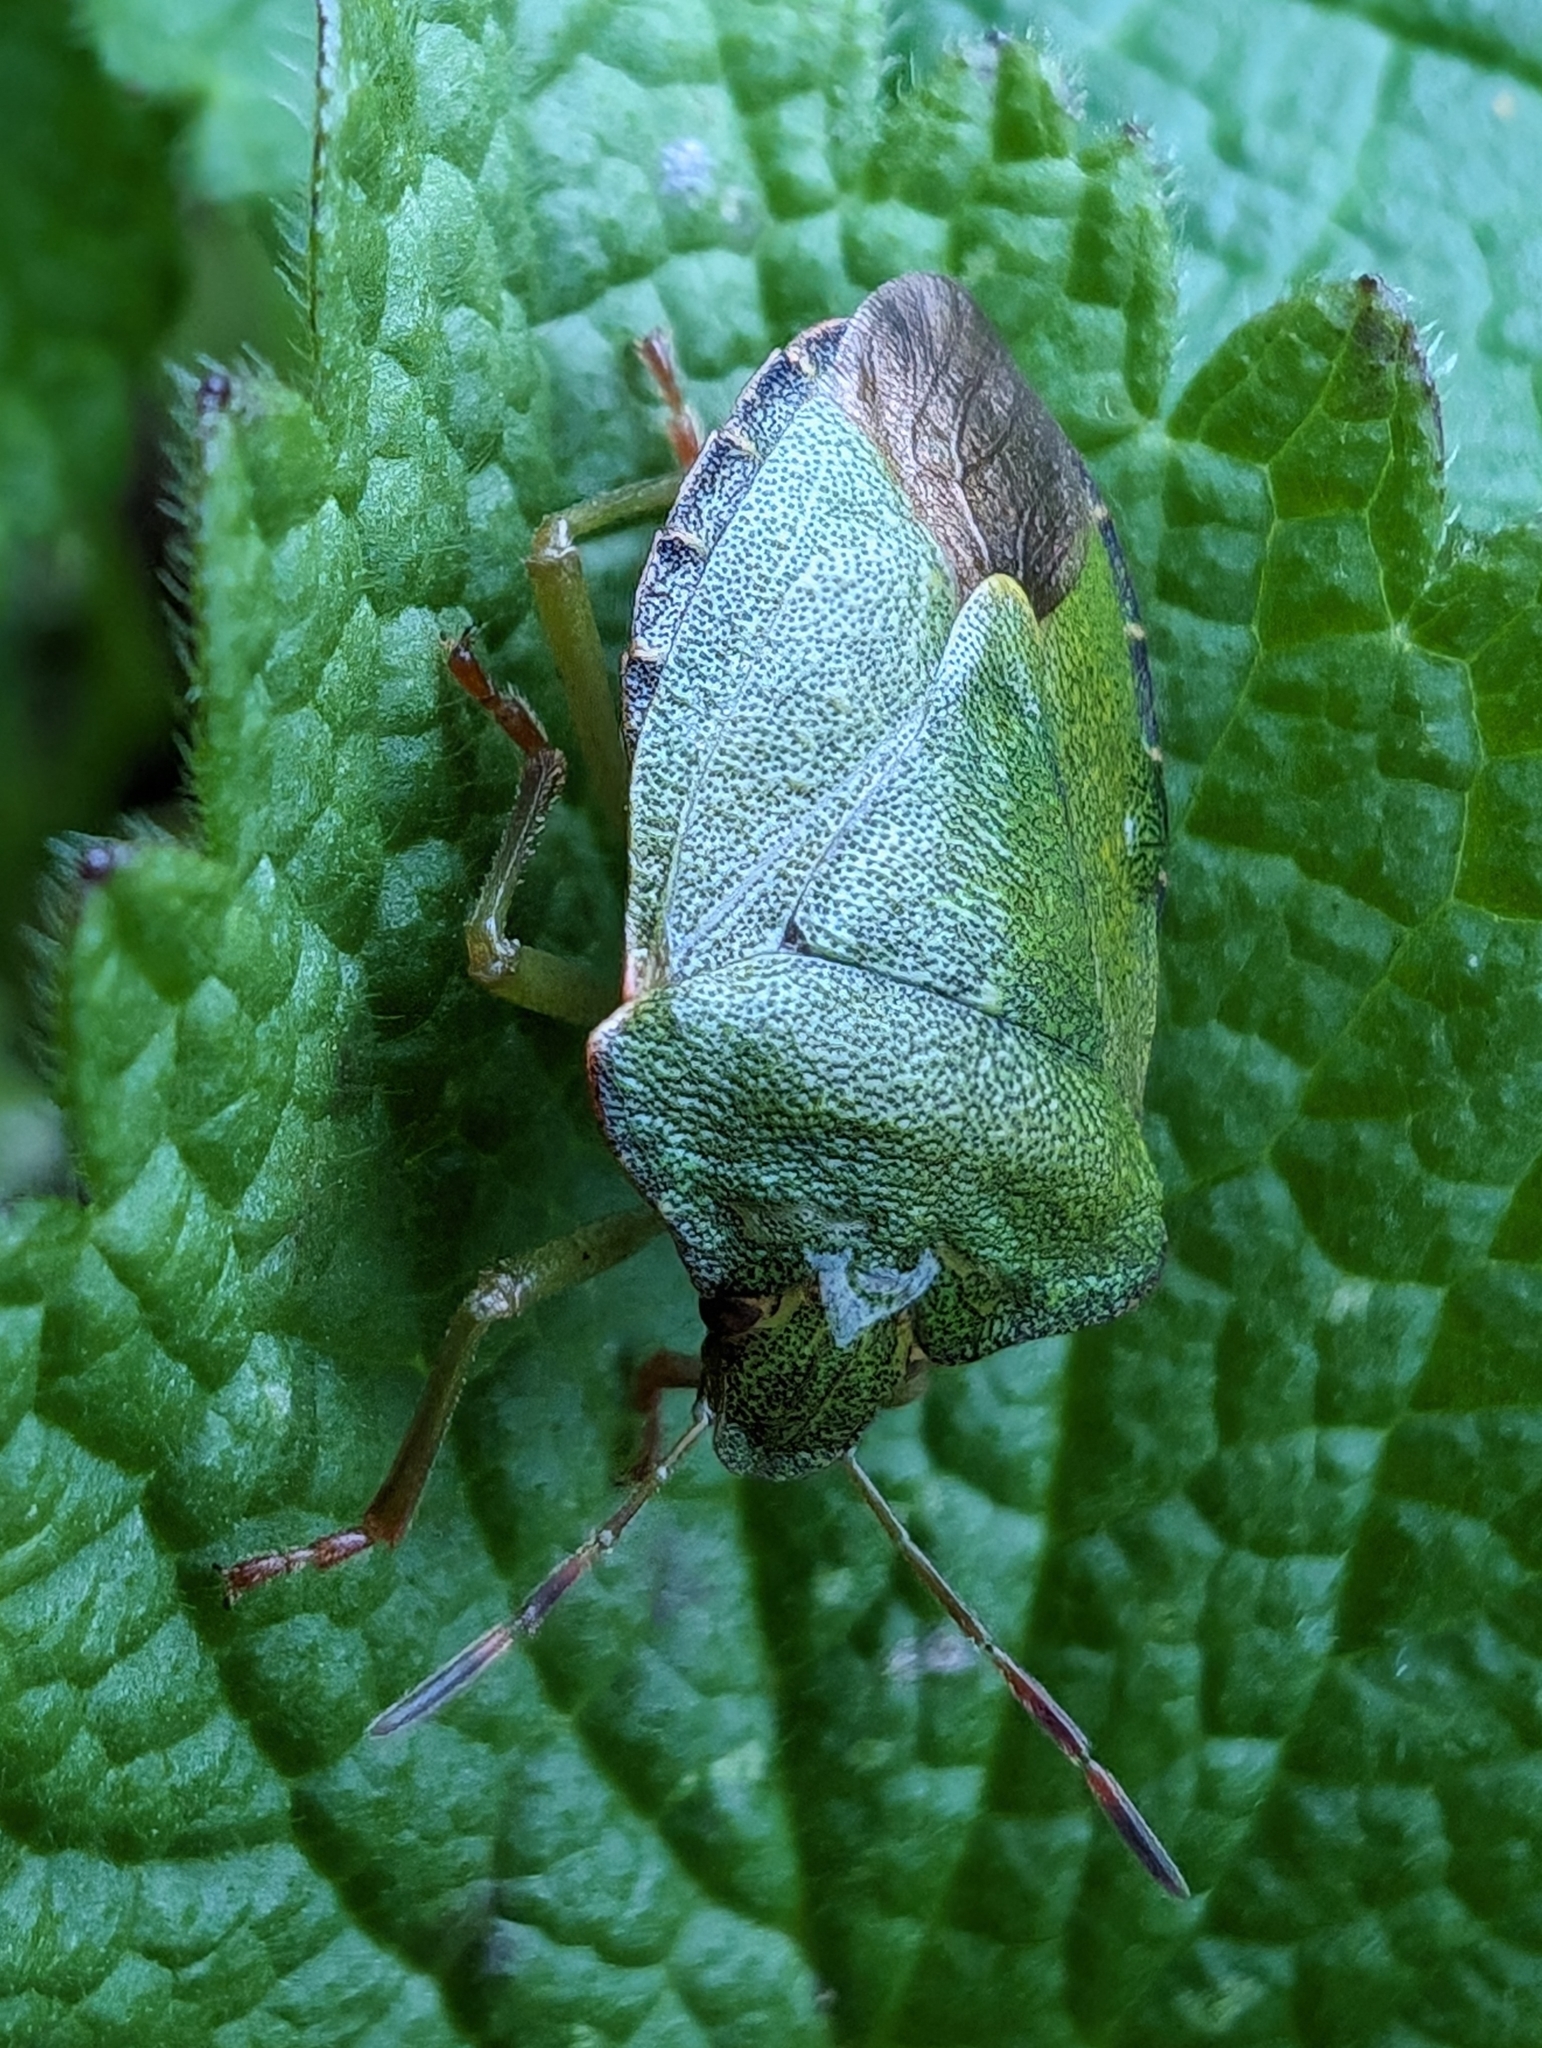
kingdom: Animalia
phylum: Arthropoda
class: Insecta
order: Hemiptera
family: Pentatomidae
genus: Palomena
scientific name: Palomena prasina
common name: Green shieldbug
